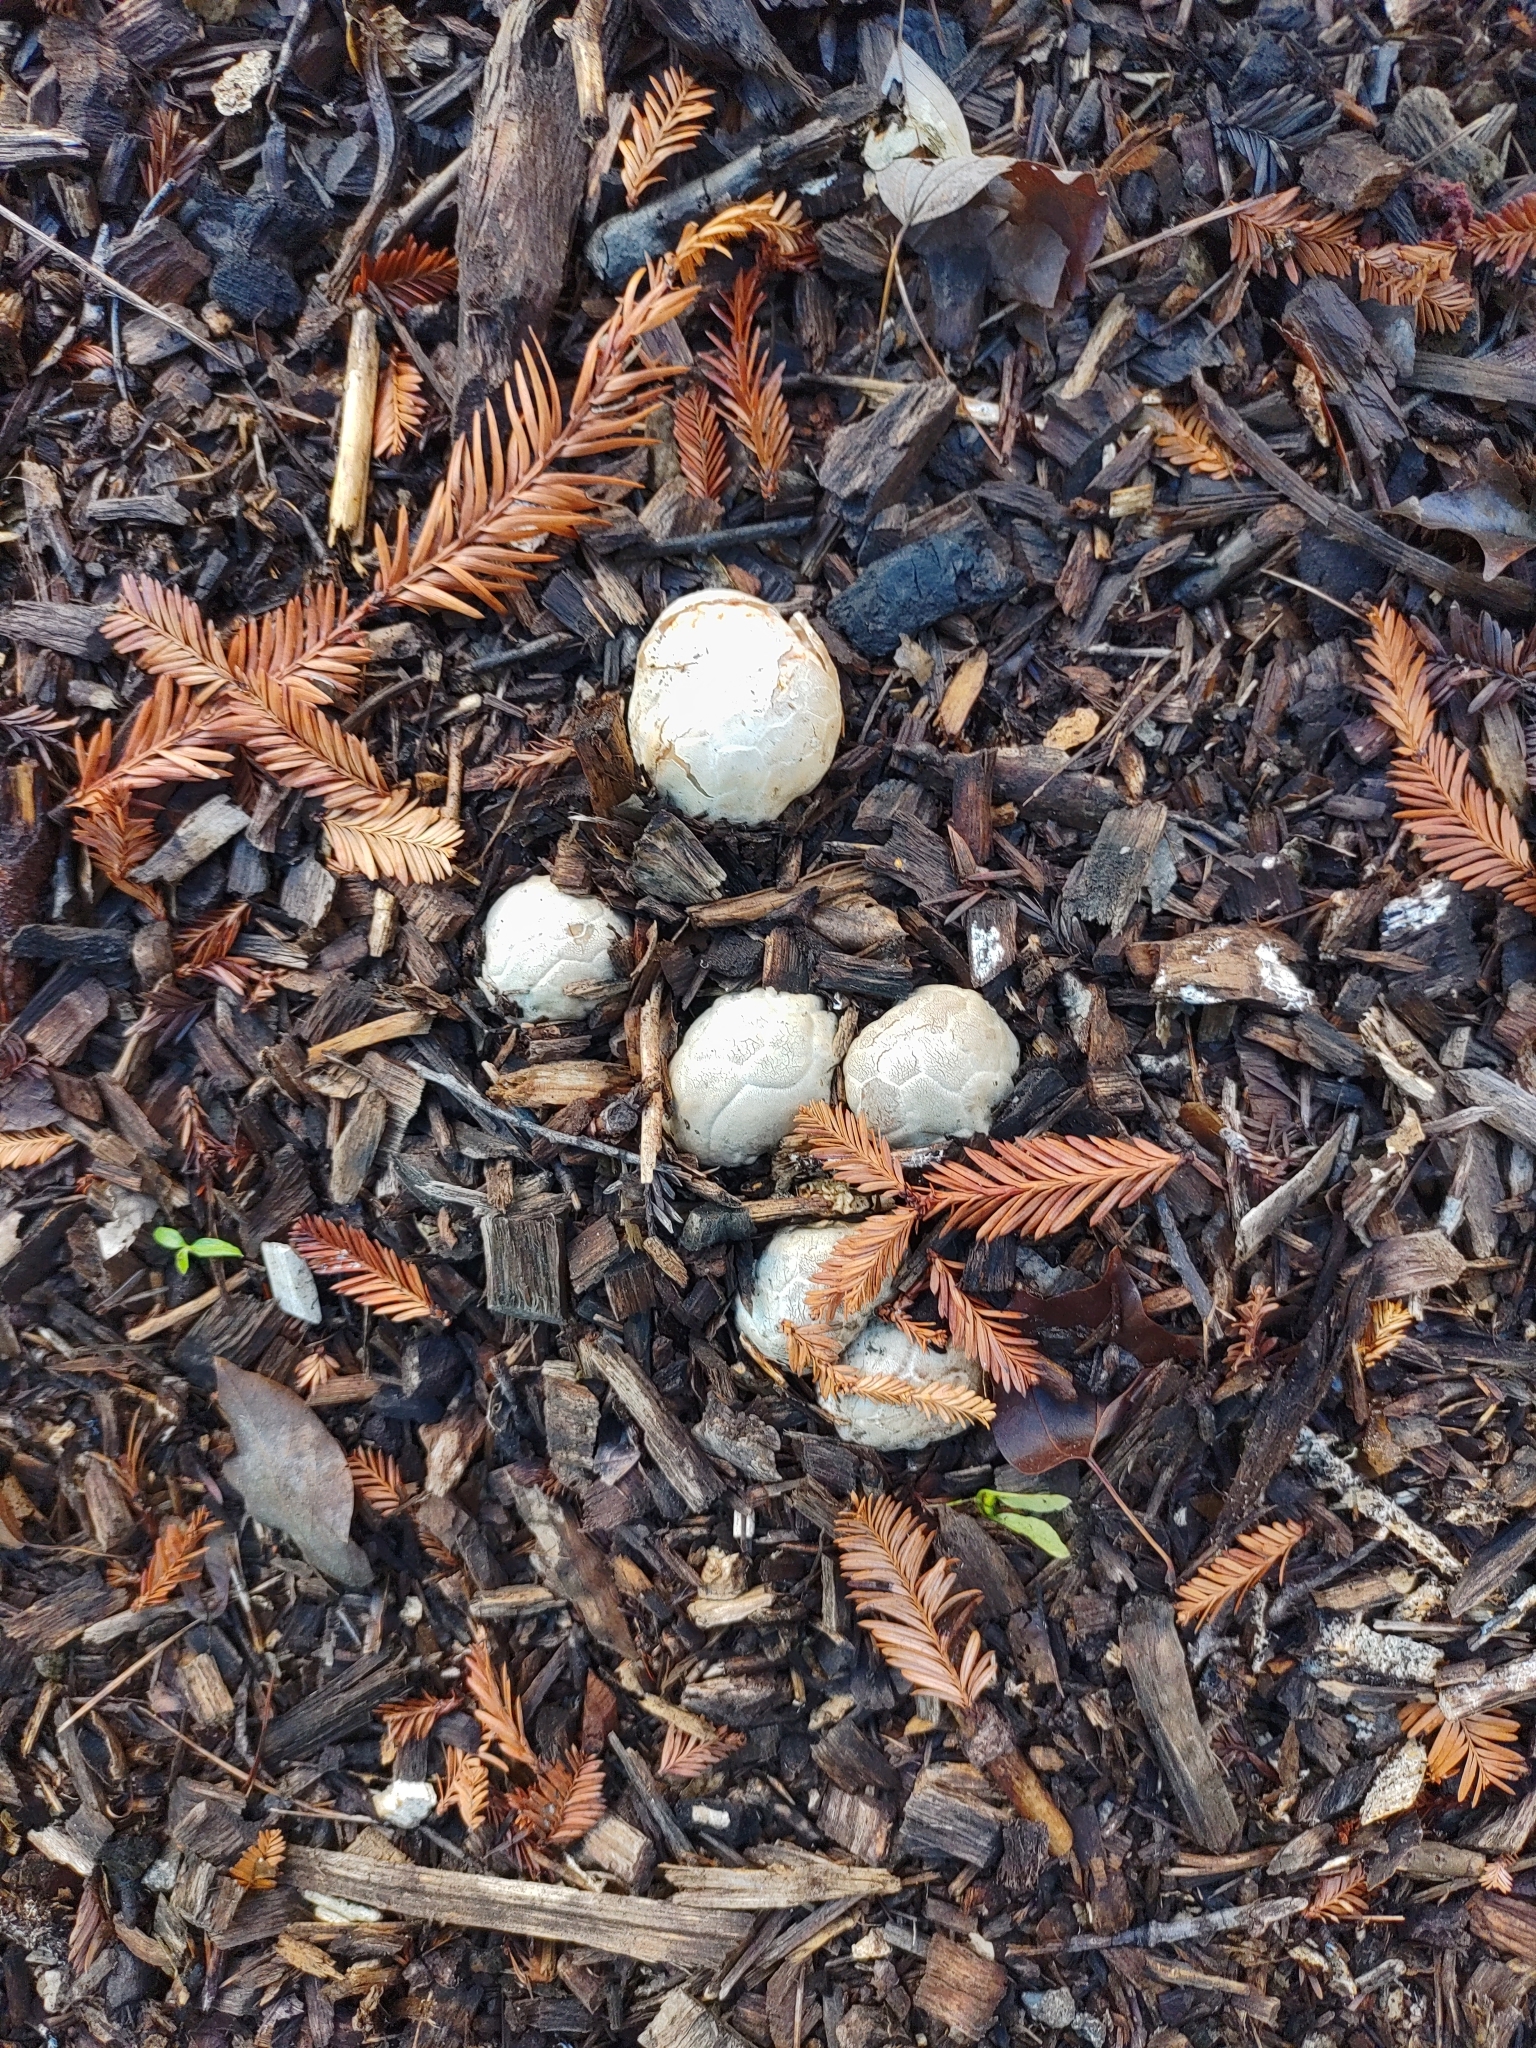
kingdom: Fungi
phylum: Basidiomycota
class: Agaricomycetes
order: Phallales
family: Phallaceae
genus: Clathrus
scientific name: Clathrus ruber
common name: Red cage
